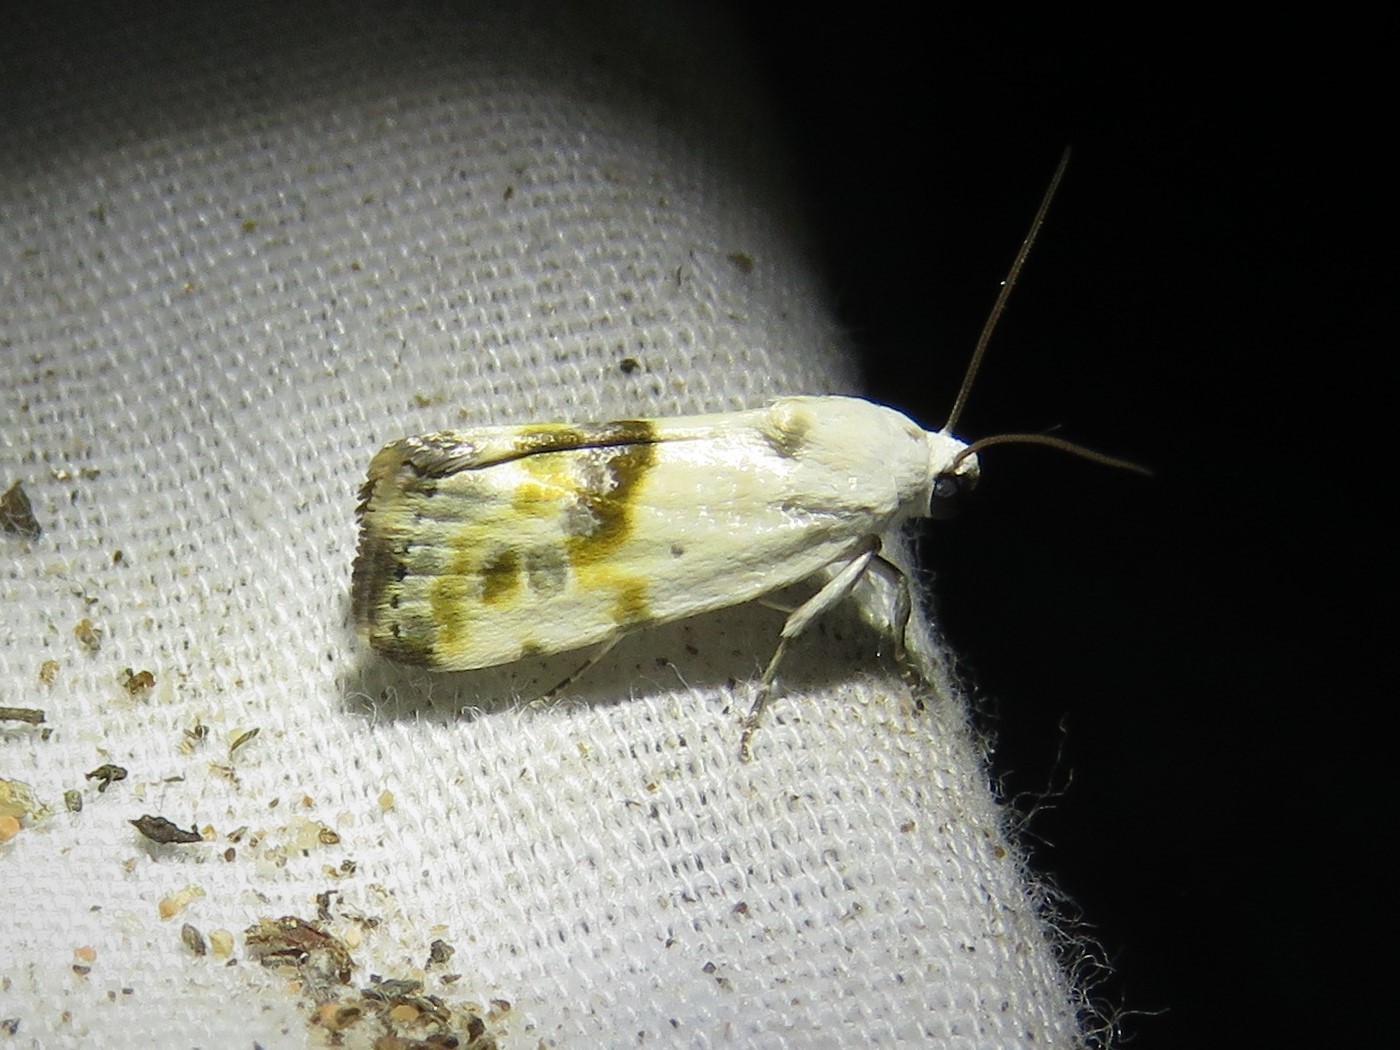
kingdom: Animalia
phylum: Arthropoda
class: Insecta
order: Lepidoptera
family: Noctuidae
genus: Acontia
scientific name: Acontia candefacta
